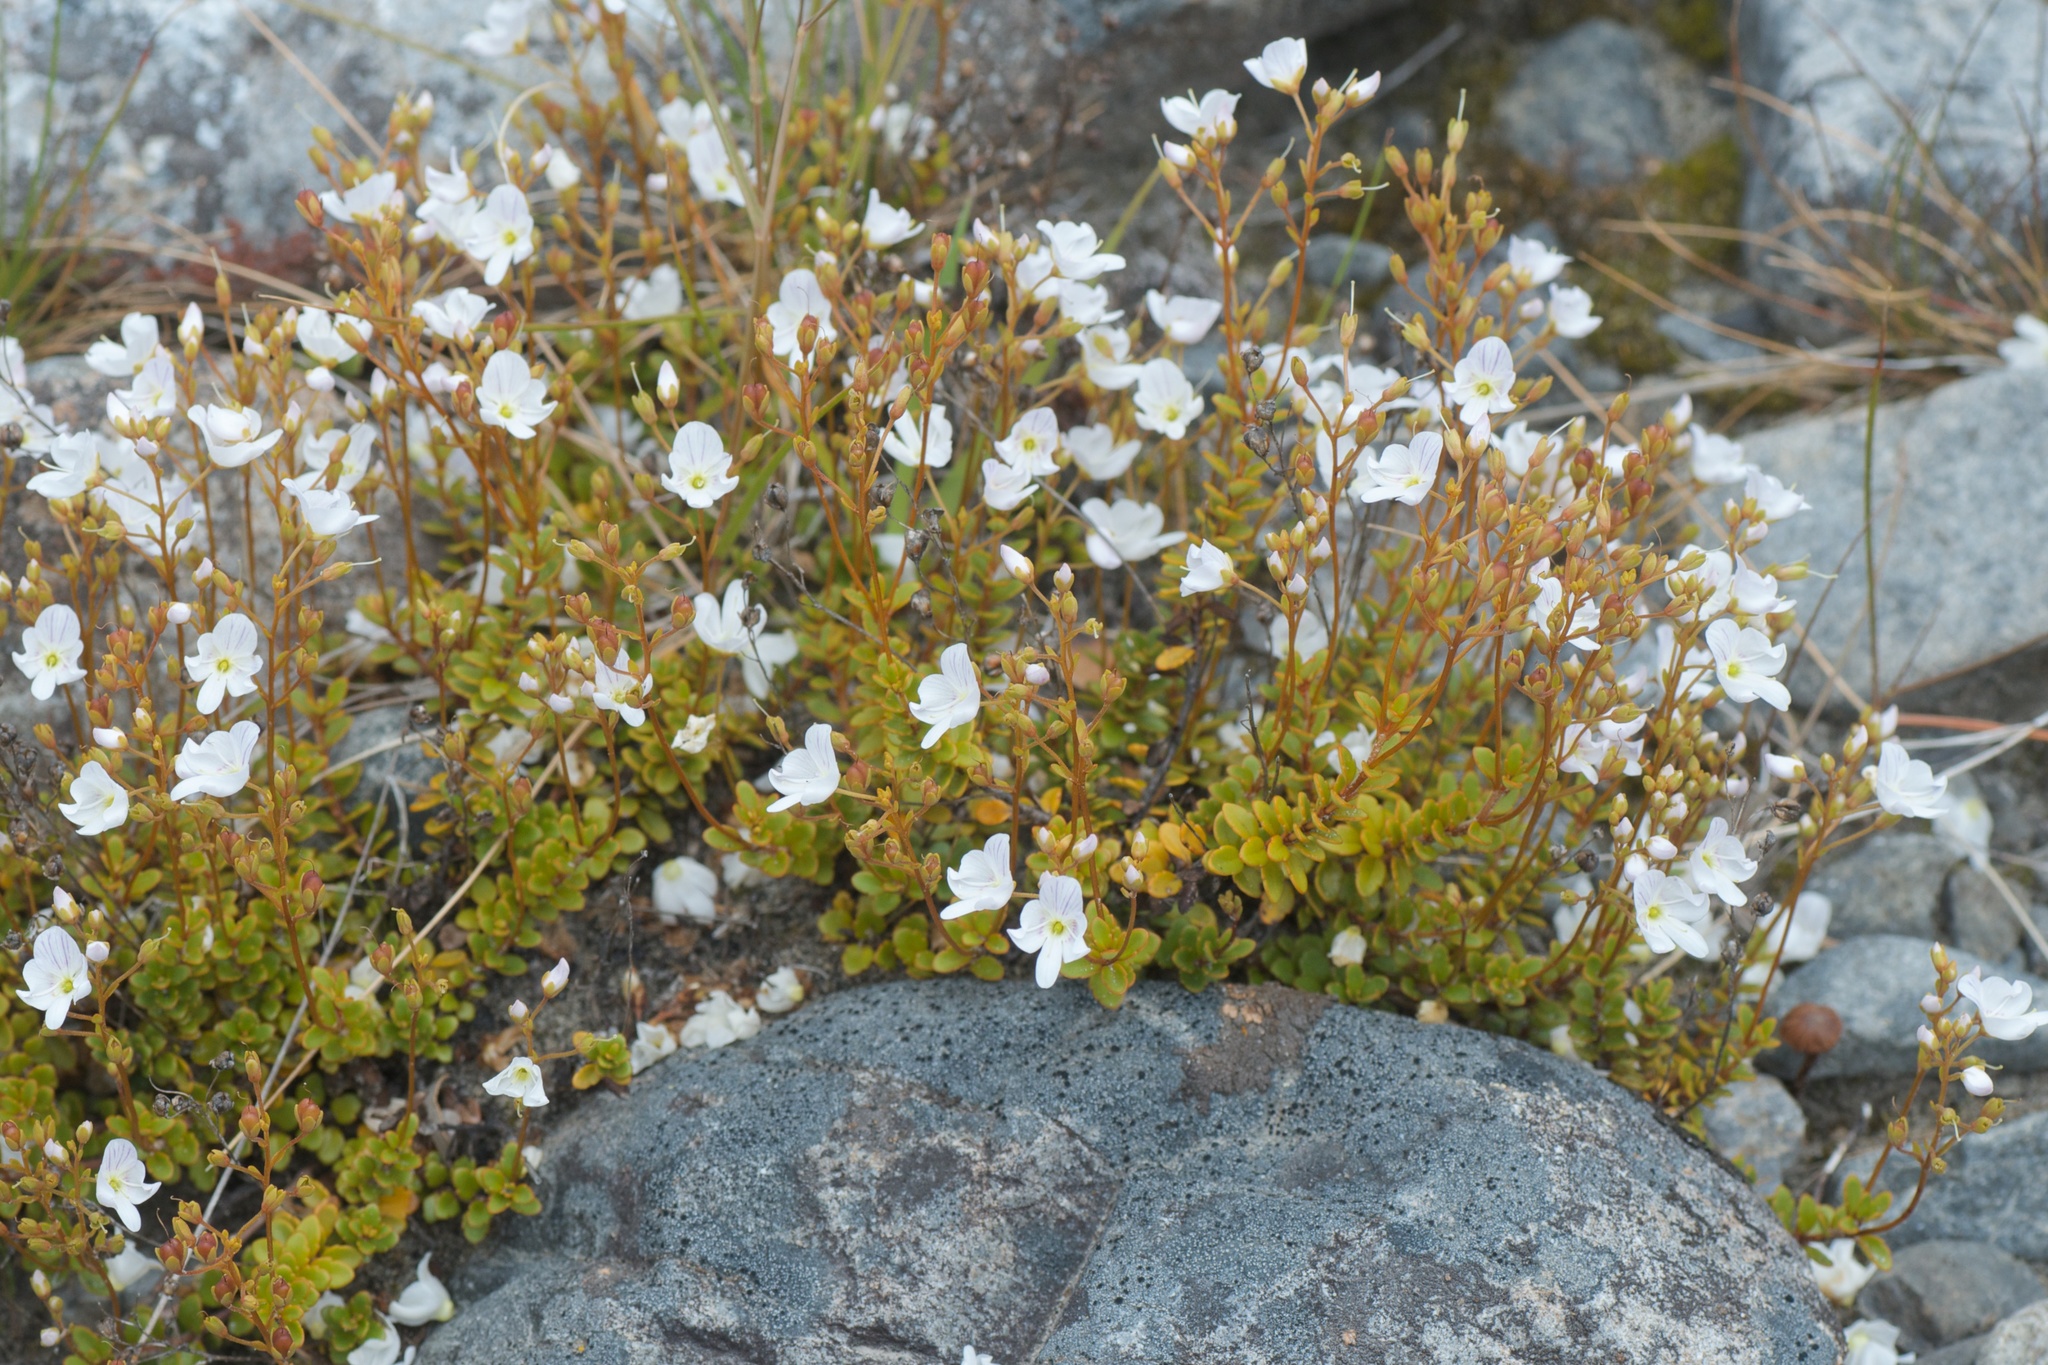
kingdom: Plantae
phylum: Tracheophyta
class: Magnoliopsida
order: Lamiales
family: Plantaginaceae
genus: Veronica
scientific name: Veronica lyallii
